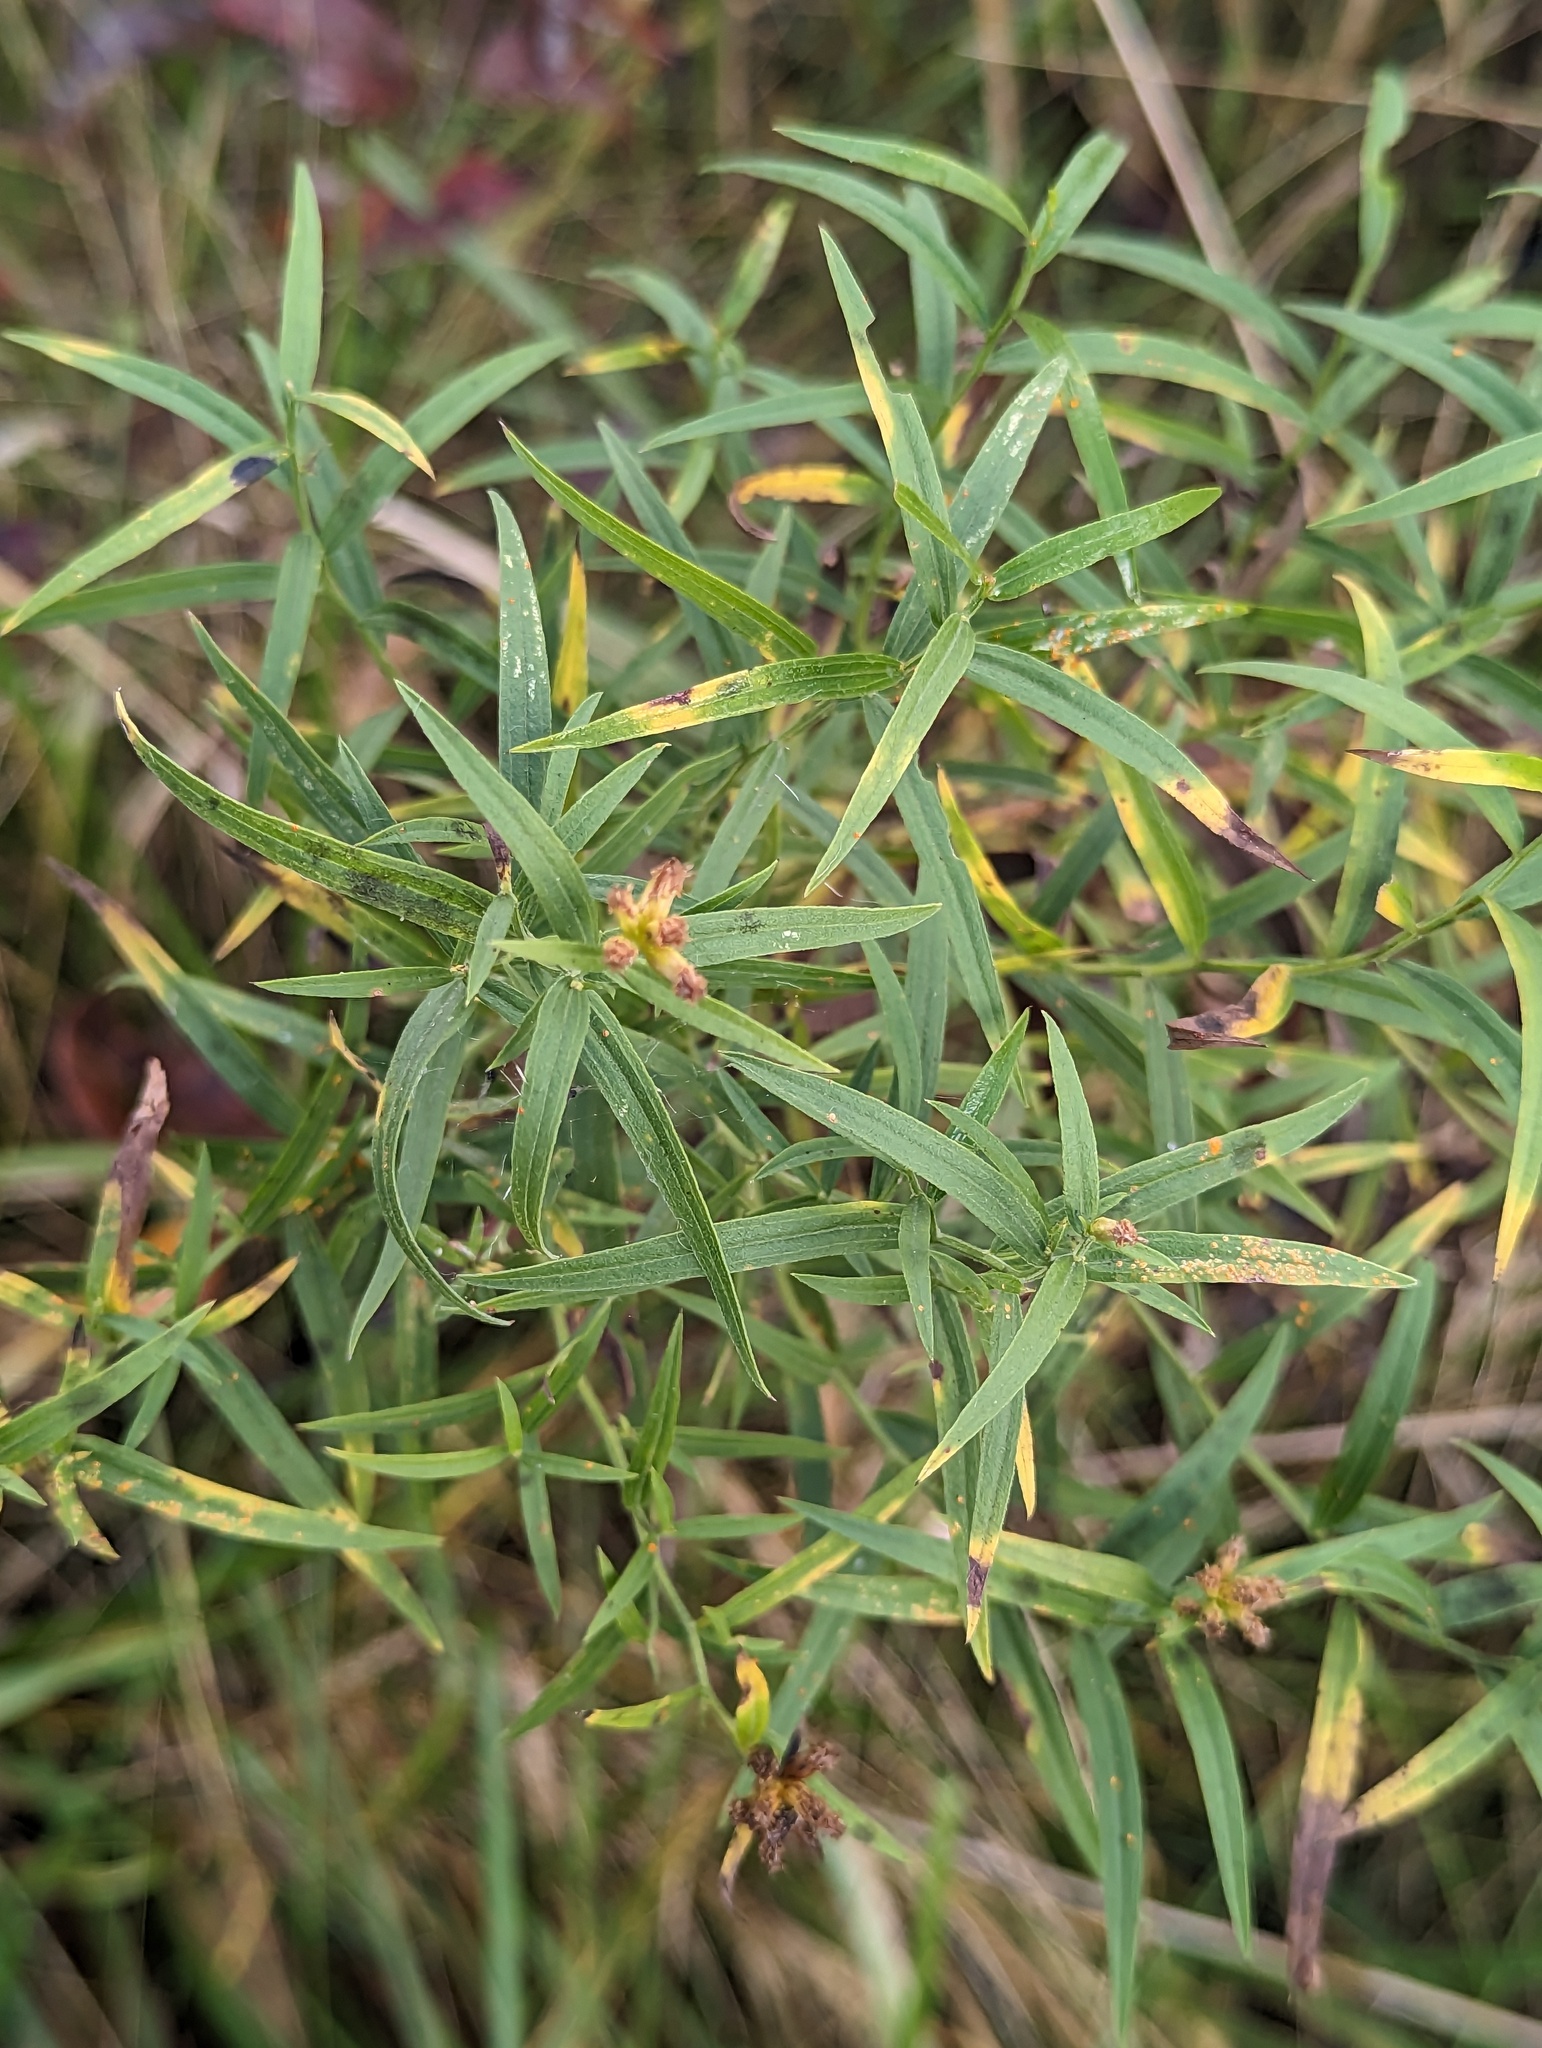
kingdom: Plantae
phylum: Tracheophyta
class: Magnoliopsida
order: Asterales
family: Asteraceae
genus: Euthamia
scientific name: Euthamia graminifolia
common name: Common goldentop
